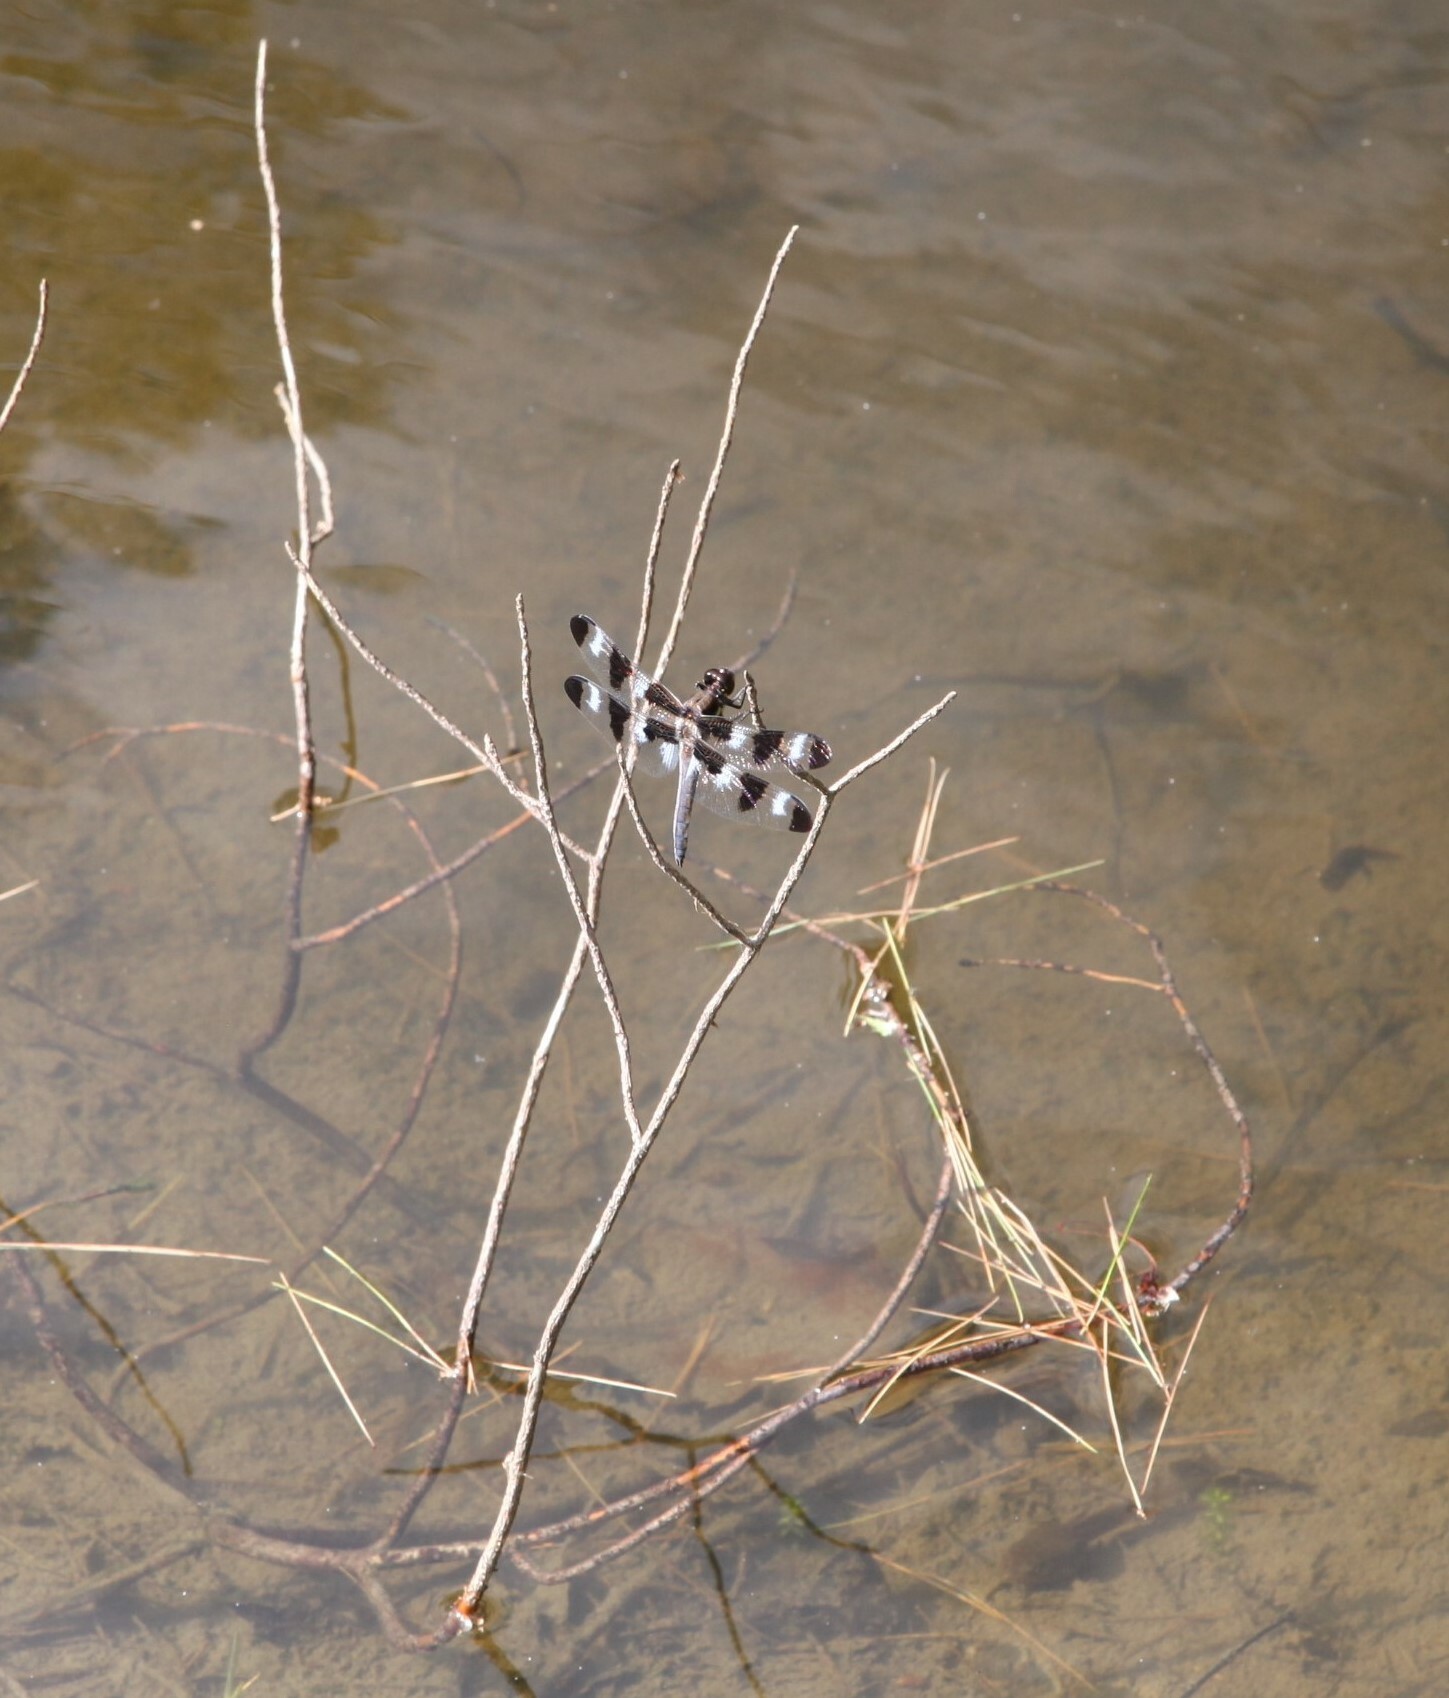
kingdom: Animalia
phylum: Arthropoda
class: Insecta
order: Odonata
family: Libellulidae
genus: Libellula
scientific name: Libellula pulchella
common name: Twelve-spotted skimmer
